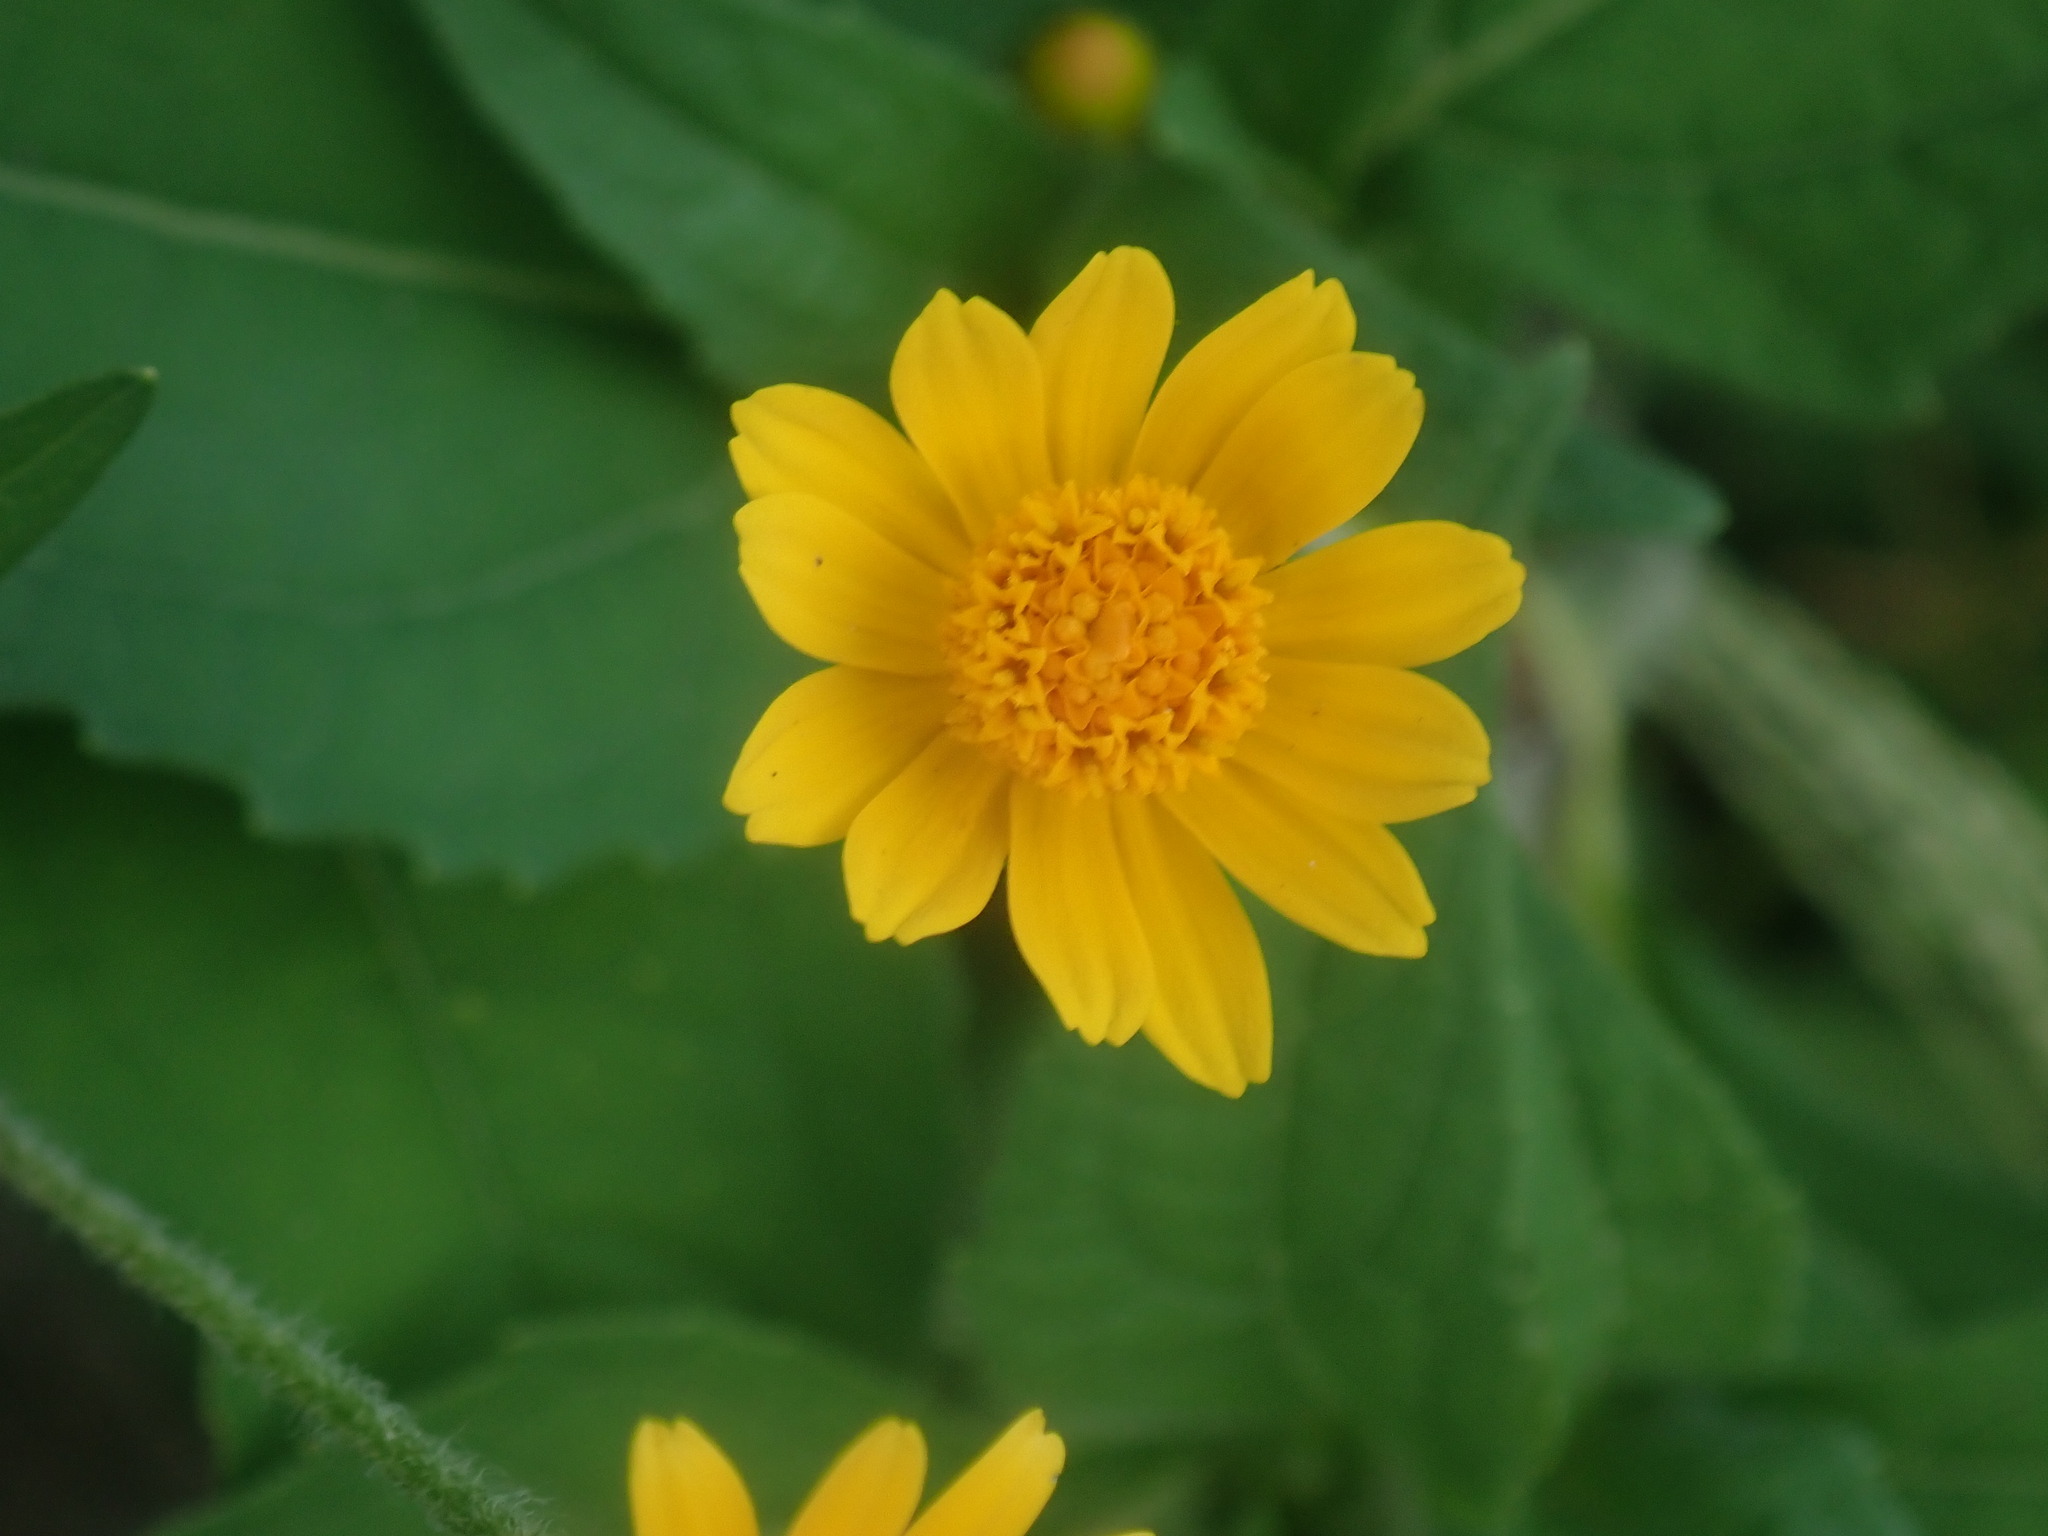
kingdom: Plantae
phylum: Tracheophyta
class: Magnoliopsida
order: Asterales
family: Asteraceae
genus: Melampodium
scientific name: Melampodium divaricatum
